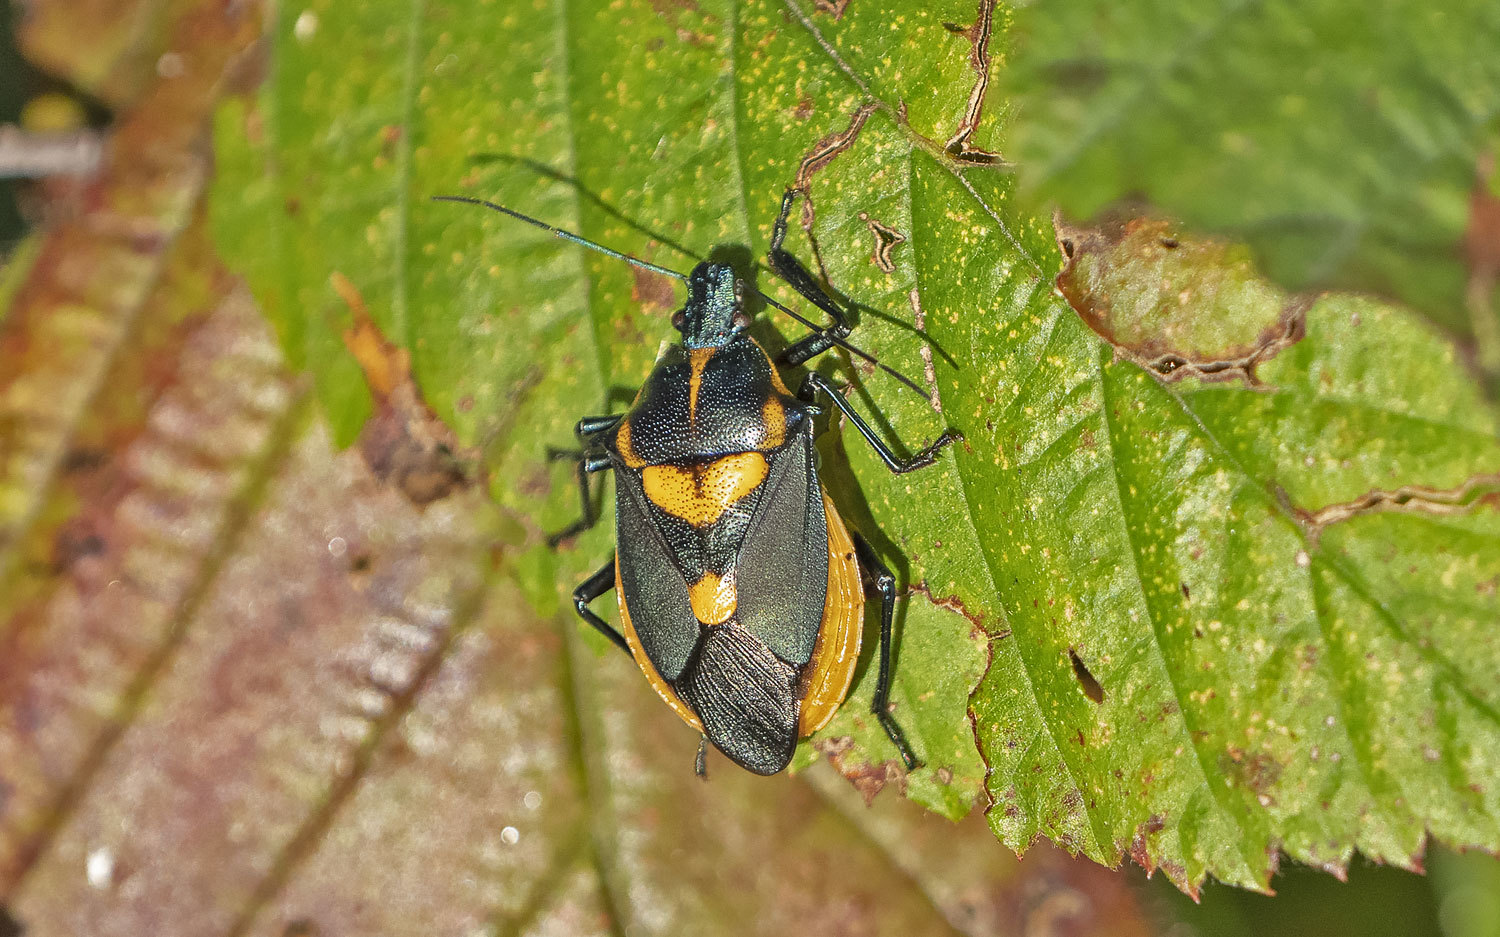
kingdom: Animalia
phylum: Arthropoda
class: Insecta
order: Hemiptera
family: Pentatomidae
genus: Euthyrhynchus
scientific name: Euthyrhynchus floridanus
